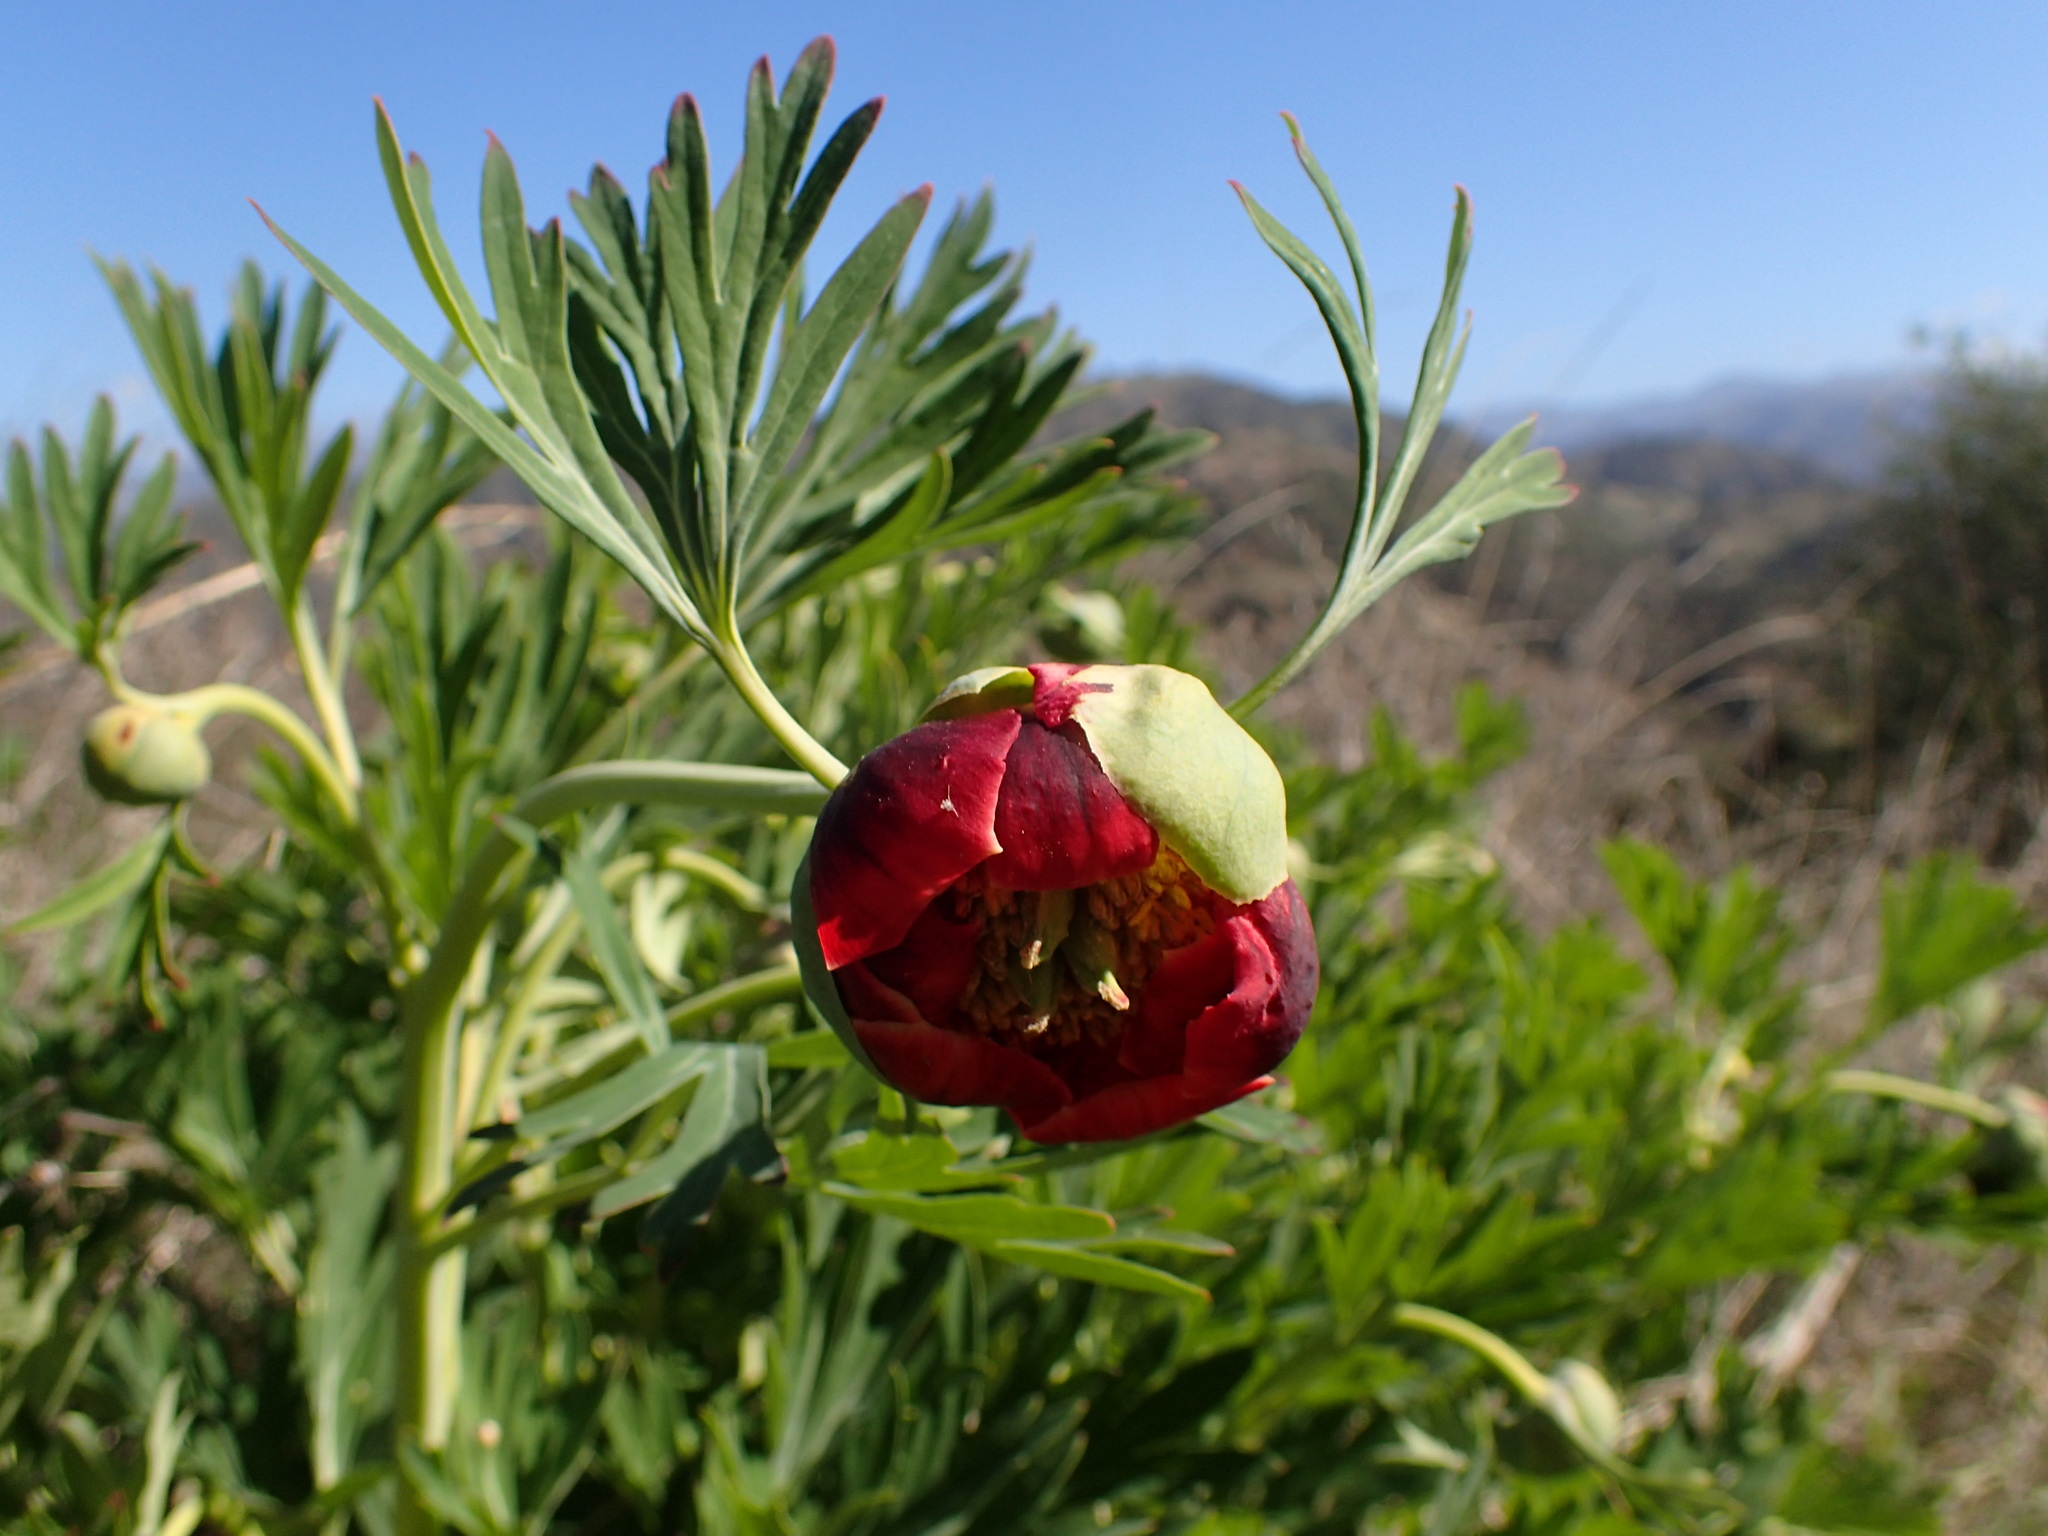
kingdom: Plantae
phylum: Tracheophyta
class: Magnoliopsida
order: Saxifragales
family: Paeoniaceae
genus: Paeonia
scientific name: Paeonia californica
